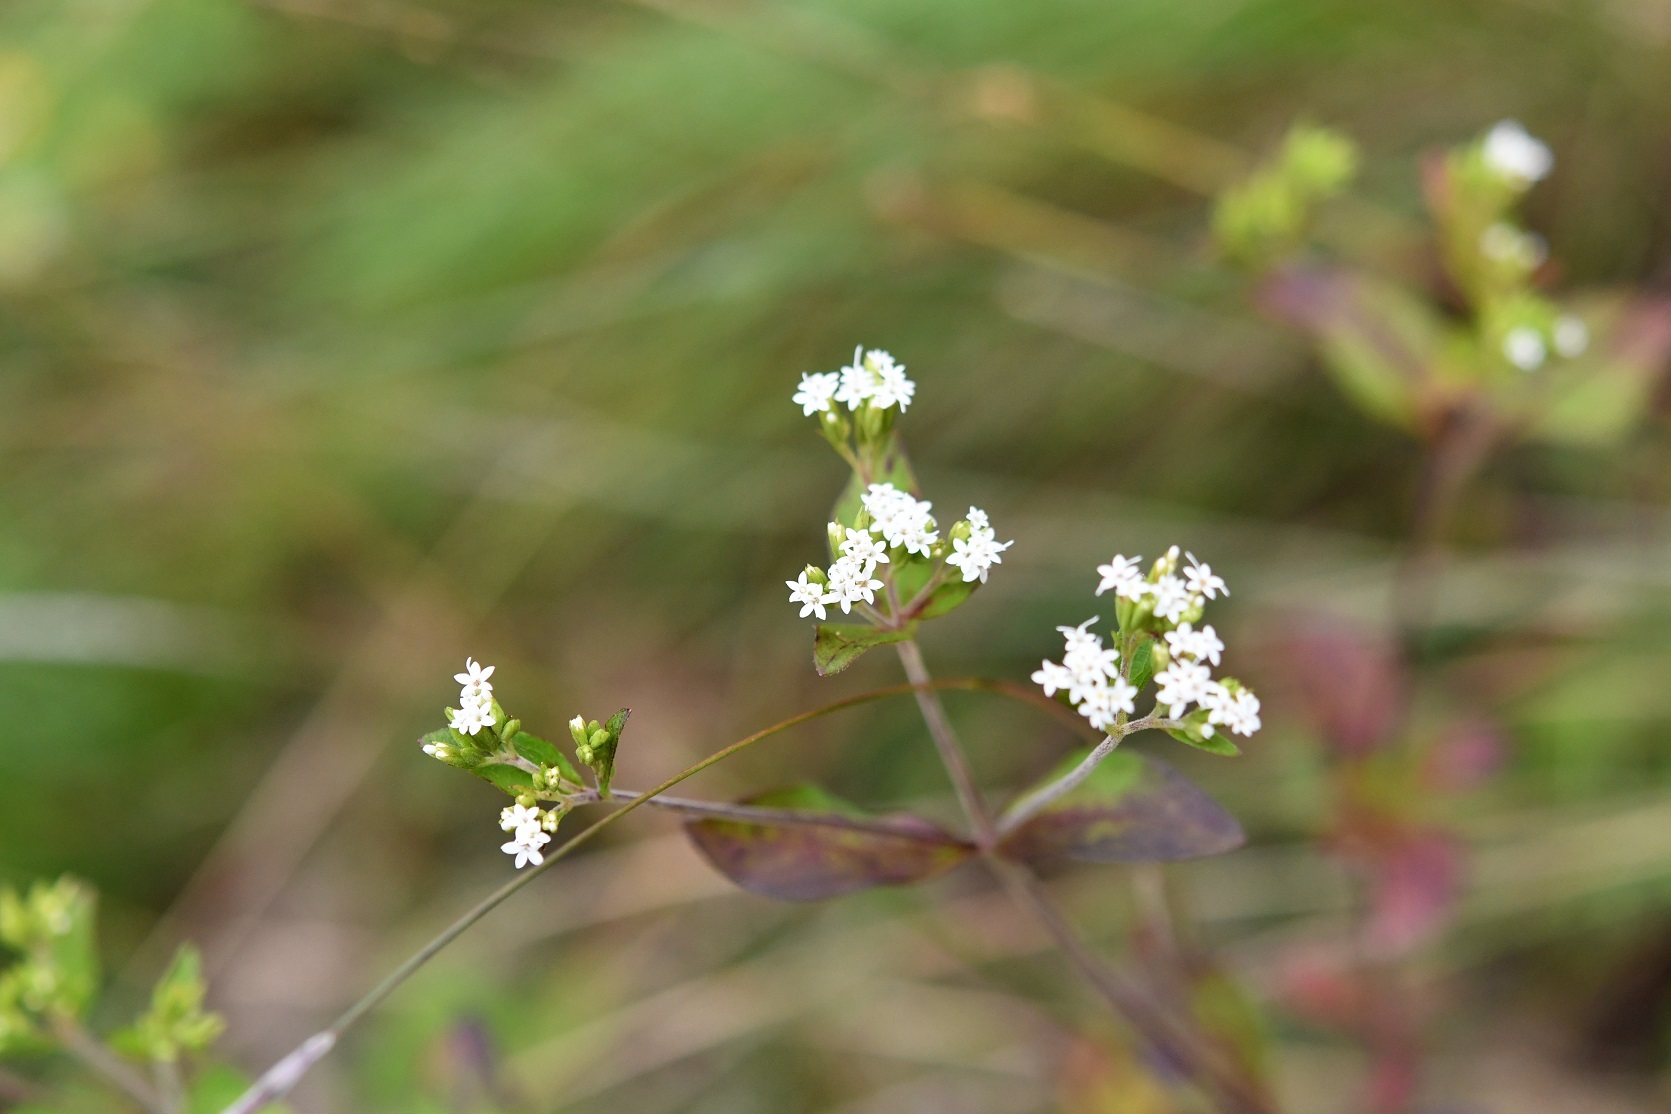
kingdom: Plantae
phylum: Tracheophyta
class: Magnoliopsida
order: Asterales
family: Asteraceae
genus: Stevia
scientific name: Stevia incognita
